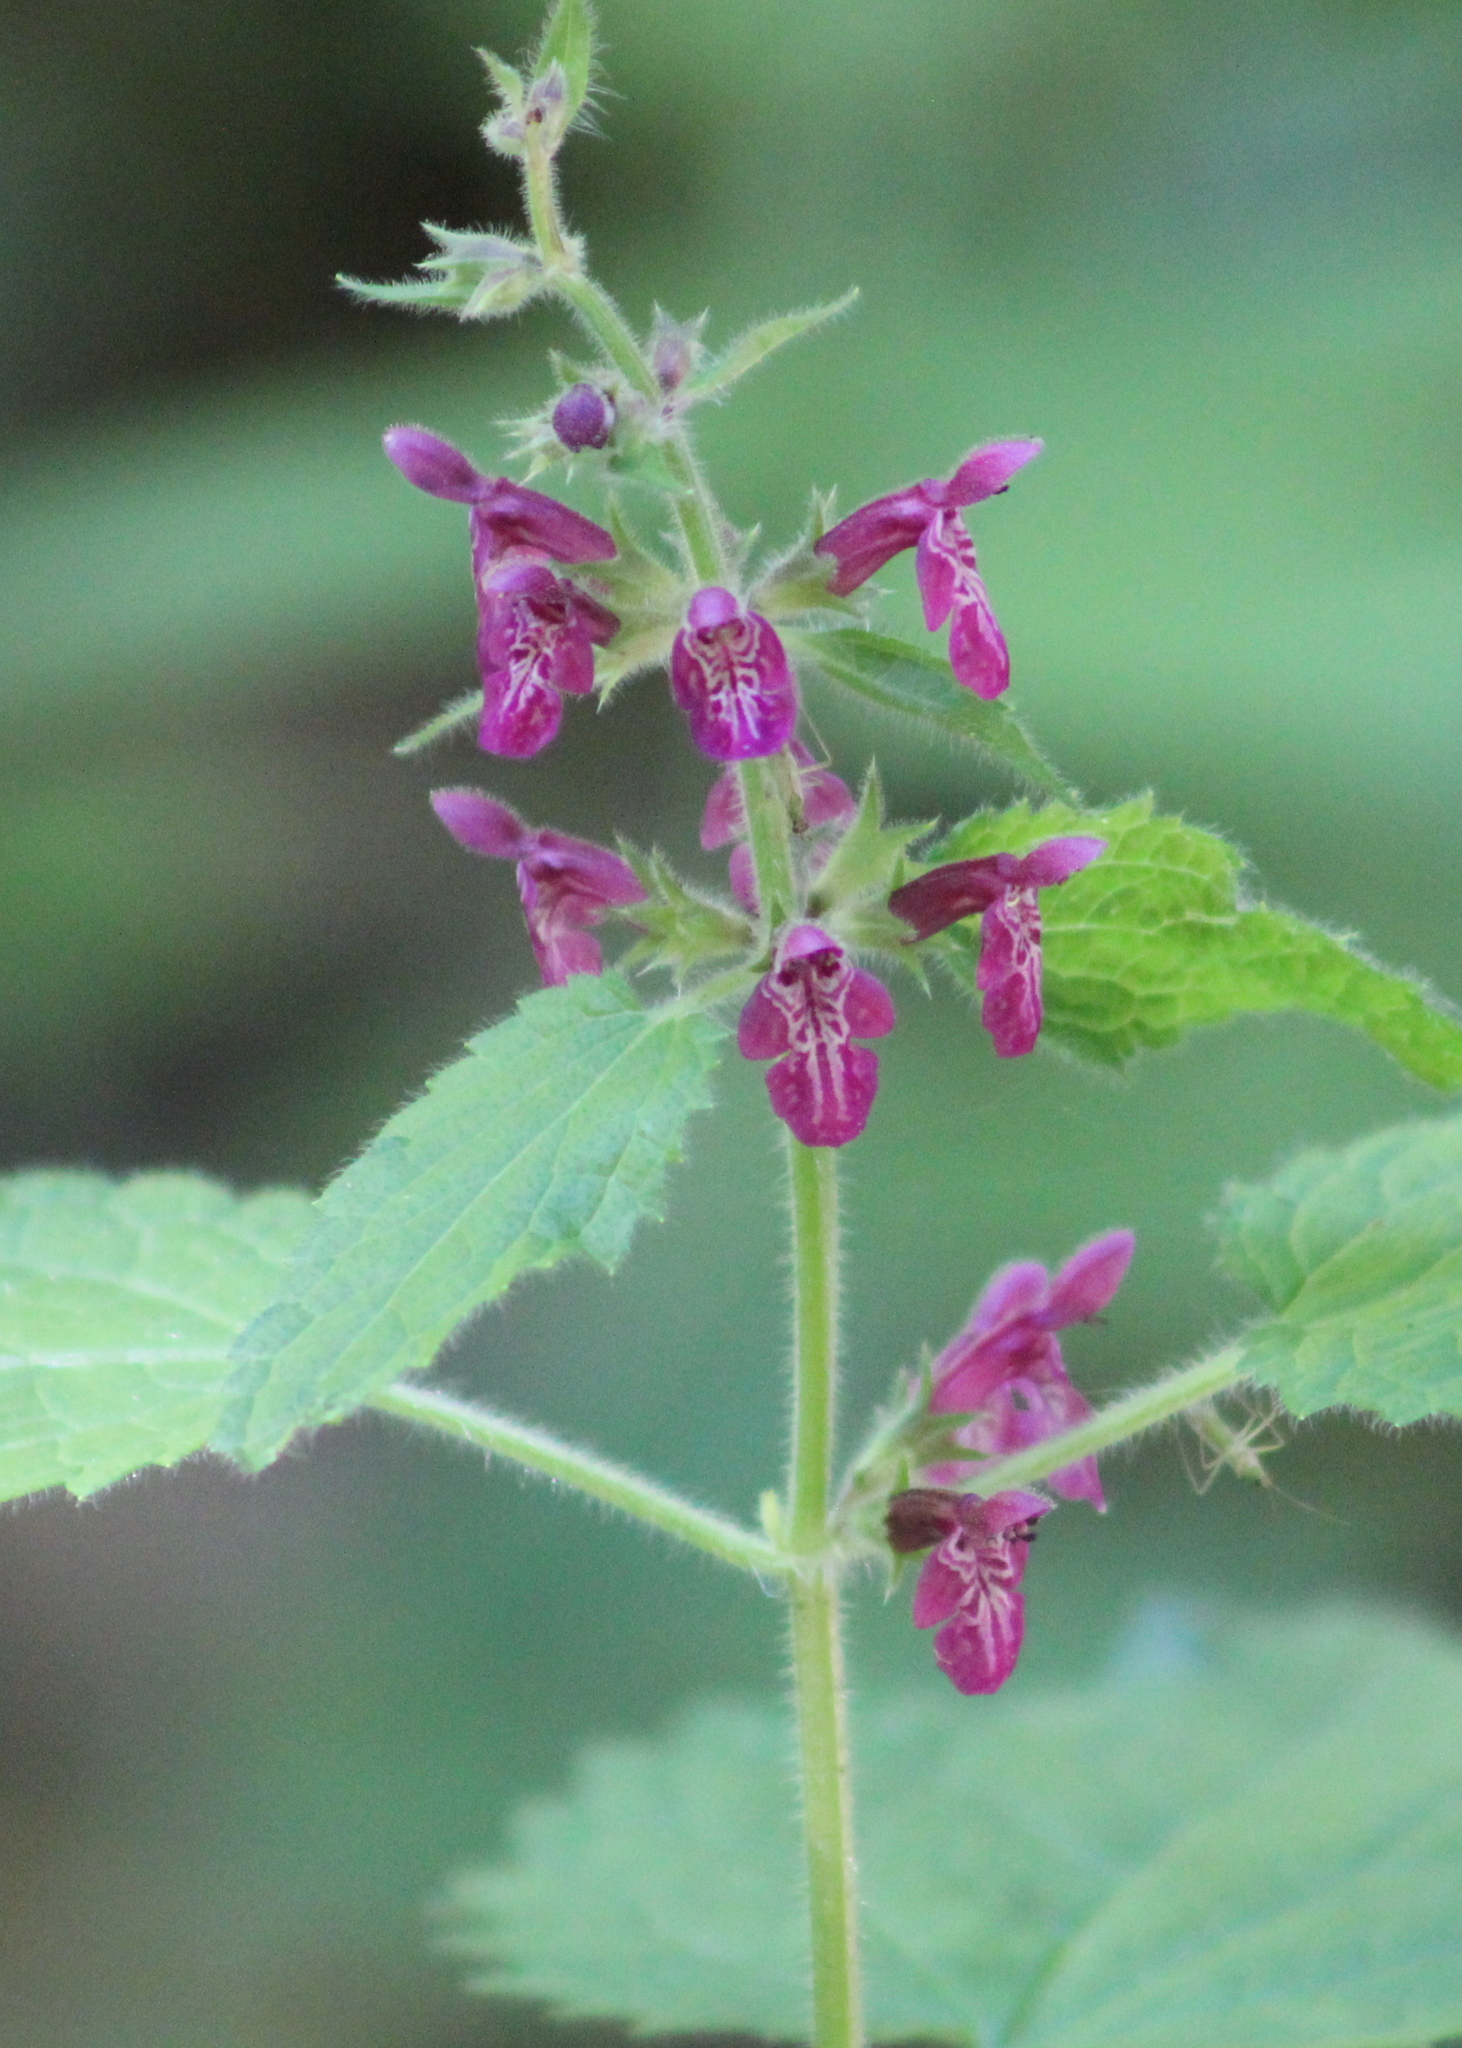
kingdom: Plantae
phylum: Tracheophyta
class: Magnoliopsida
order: Lamiales
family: Lamiaceae
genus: Stachys
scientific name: Stachys sylvatica
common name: Hedge woundwort
